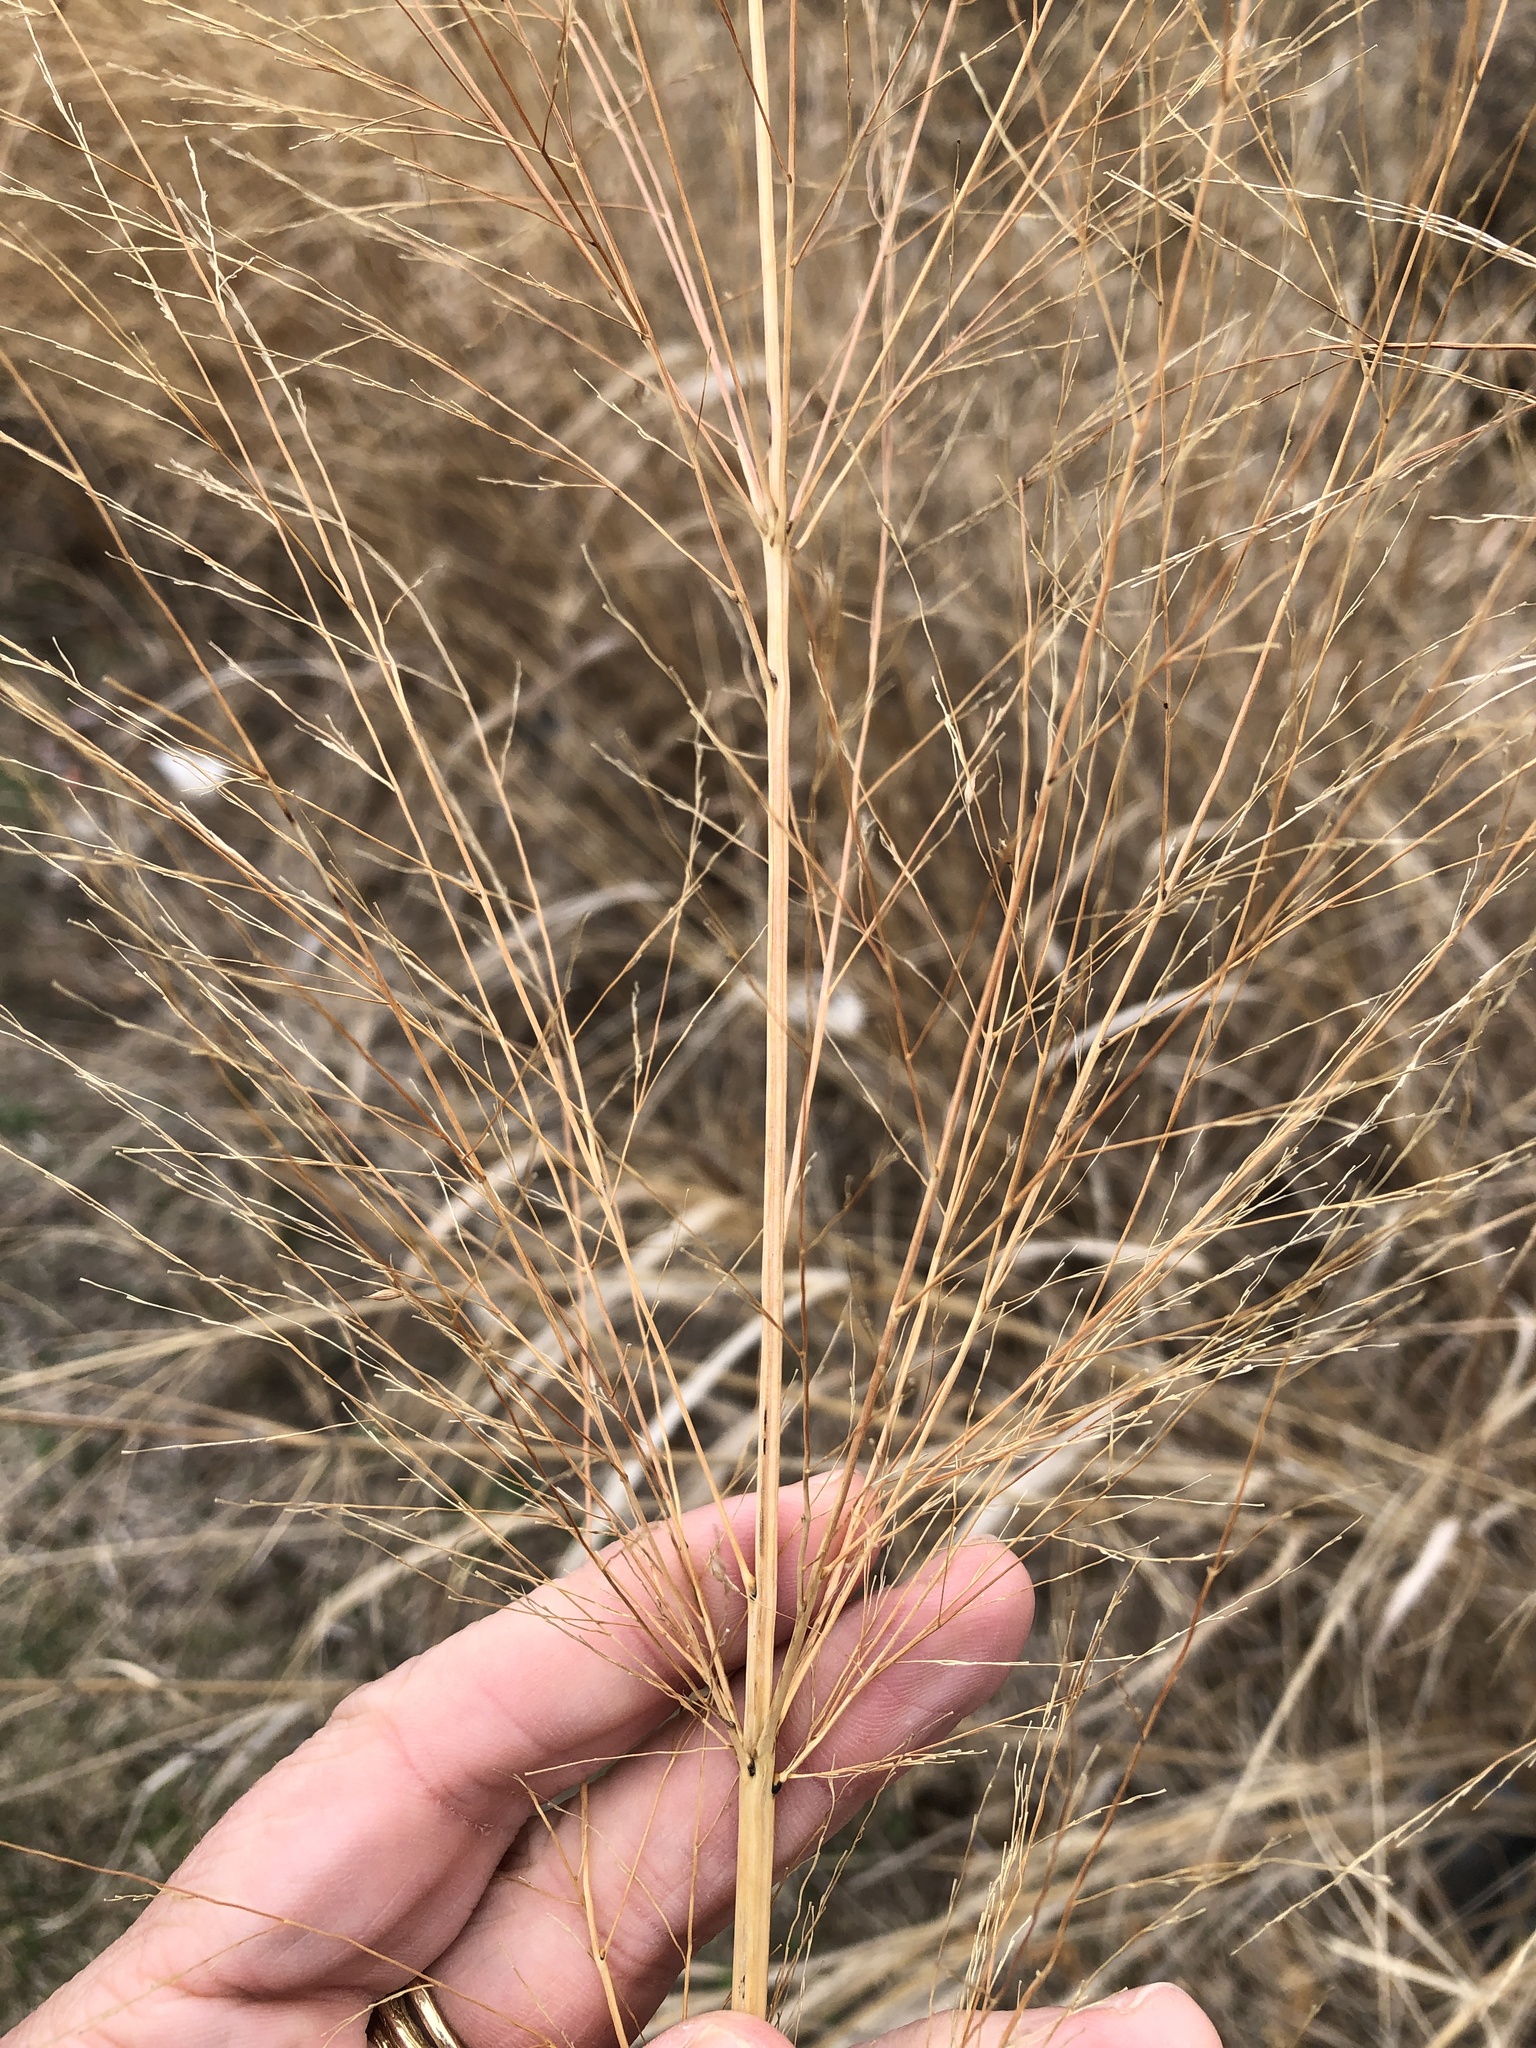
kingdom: Plantae
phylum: Tracheophyta
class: Liliopsida
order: Poales
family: Poaceae
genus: Panicum
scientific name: Panicum virgatum
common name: Switchgrass
